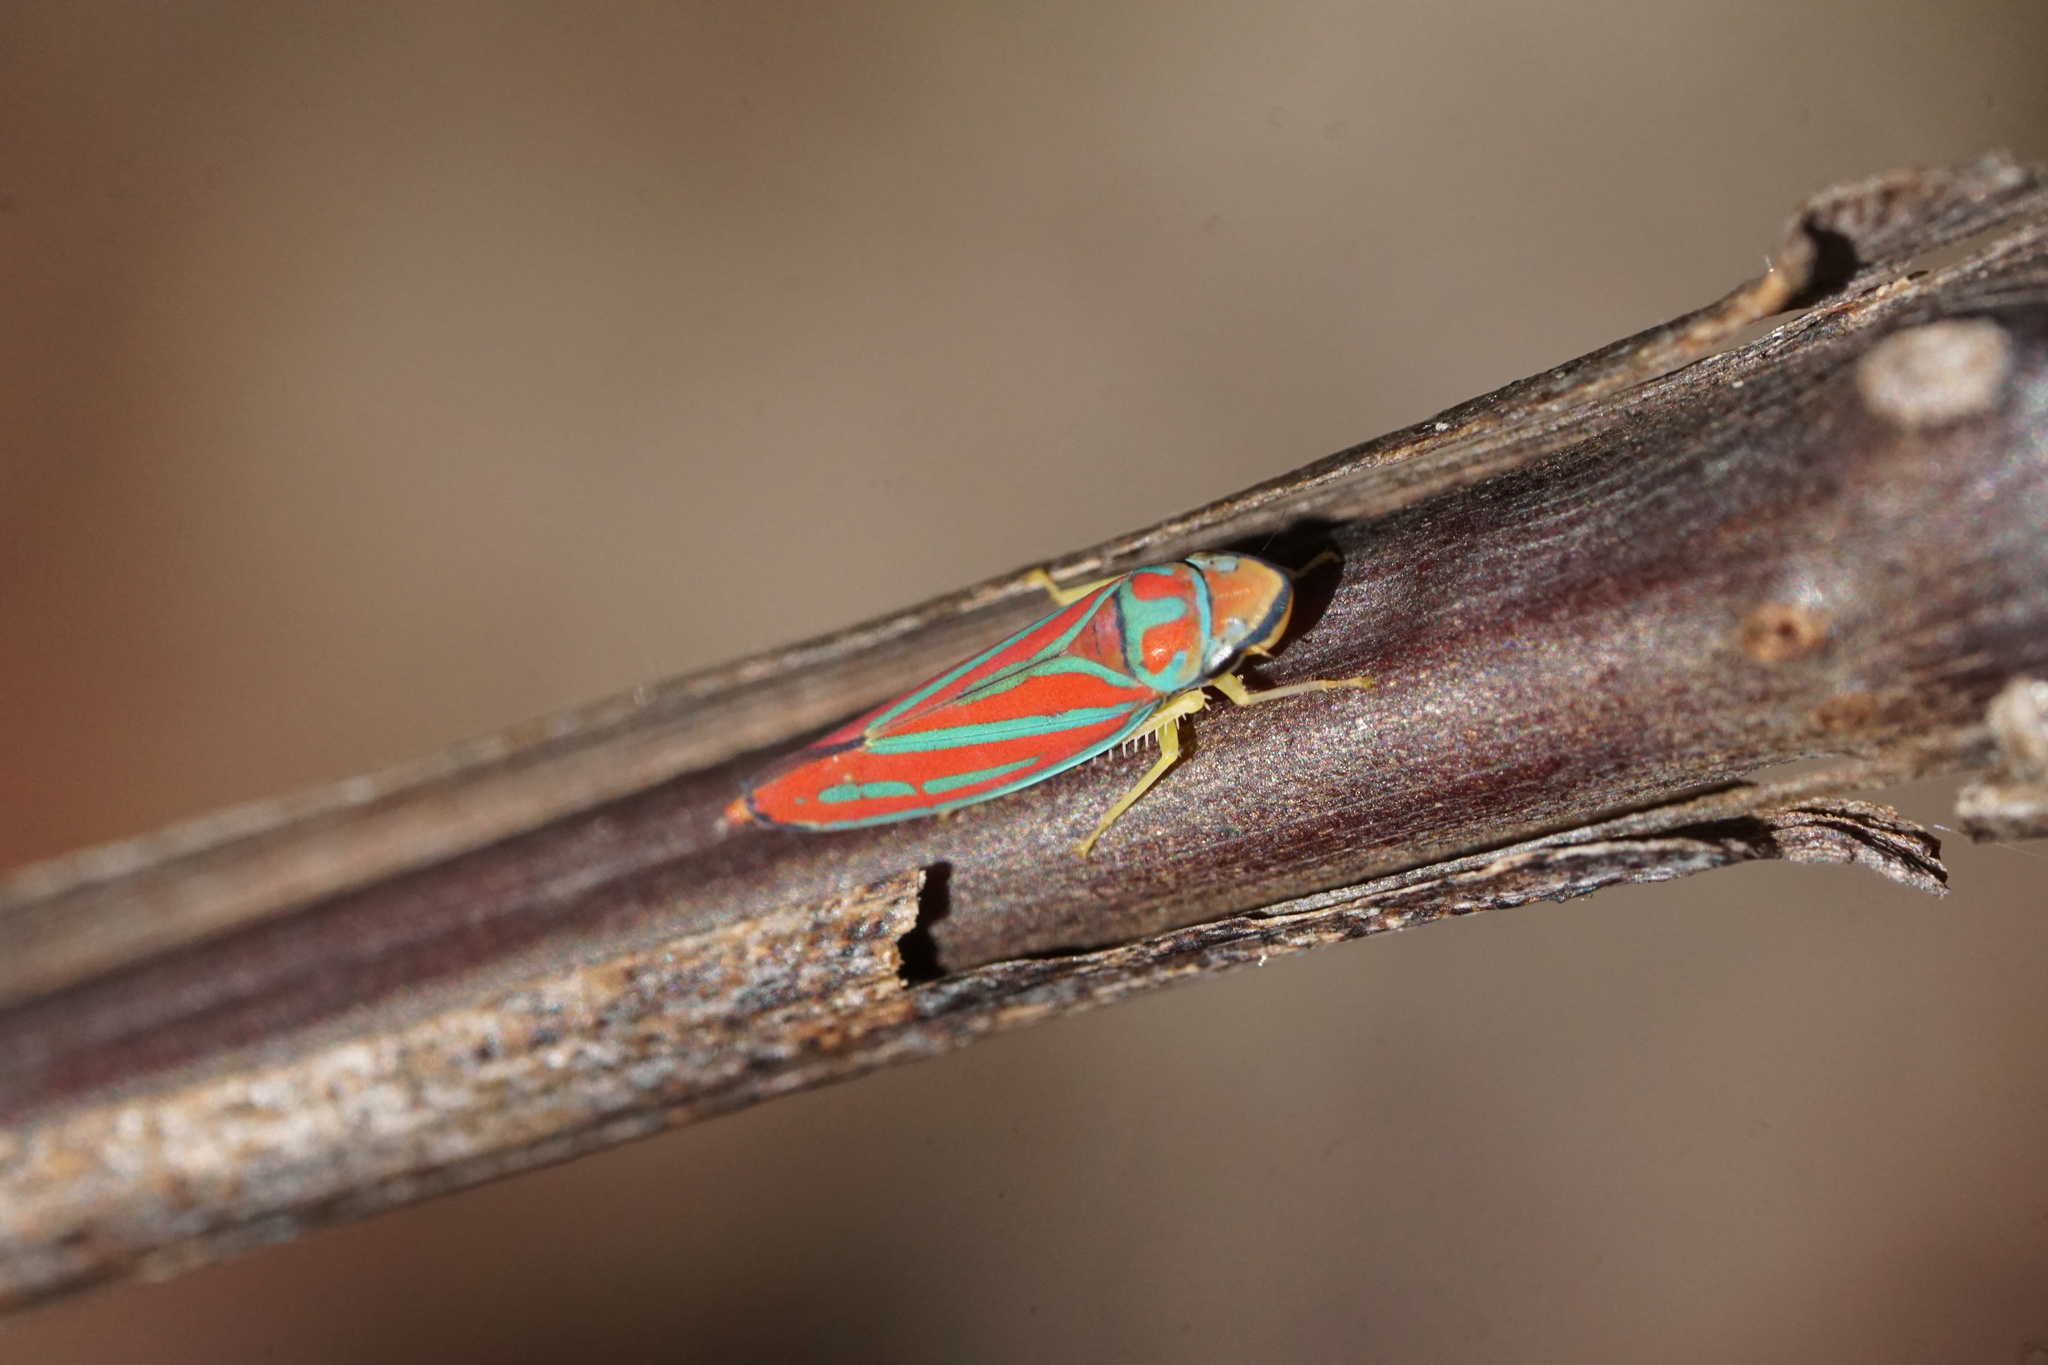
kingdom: Animalia
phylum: Arthropoda
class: Insecta
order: Hemiptera
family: Cicadellidae
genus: Graphocephala
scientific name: Graphocephala coccinea
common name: Candy-striped leafhopper
